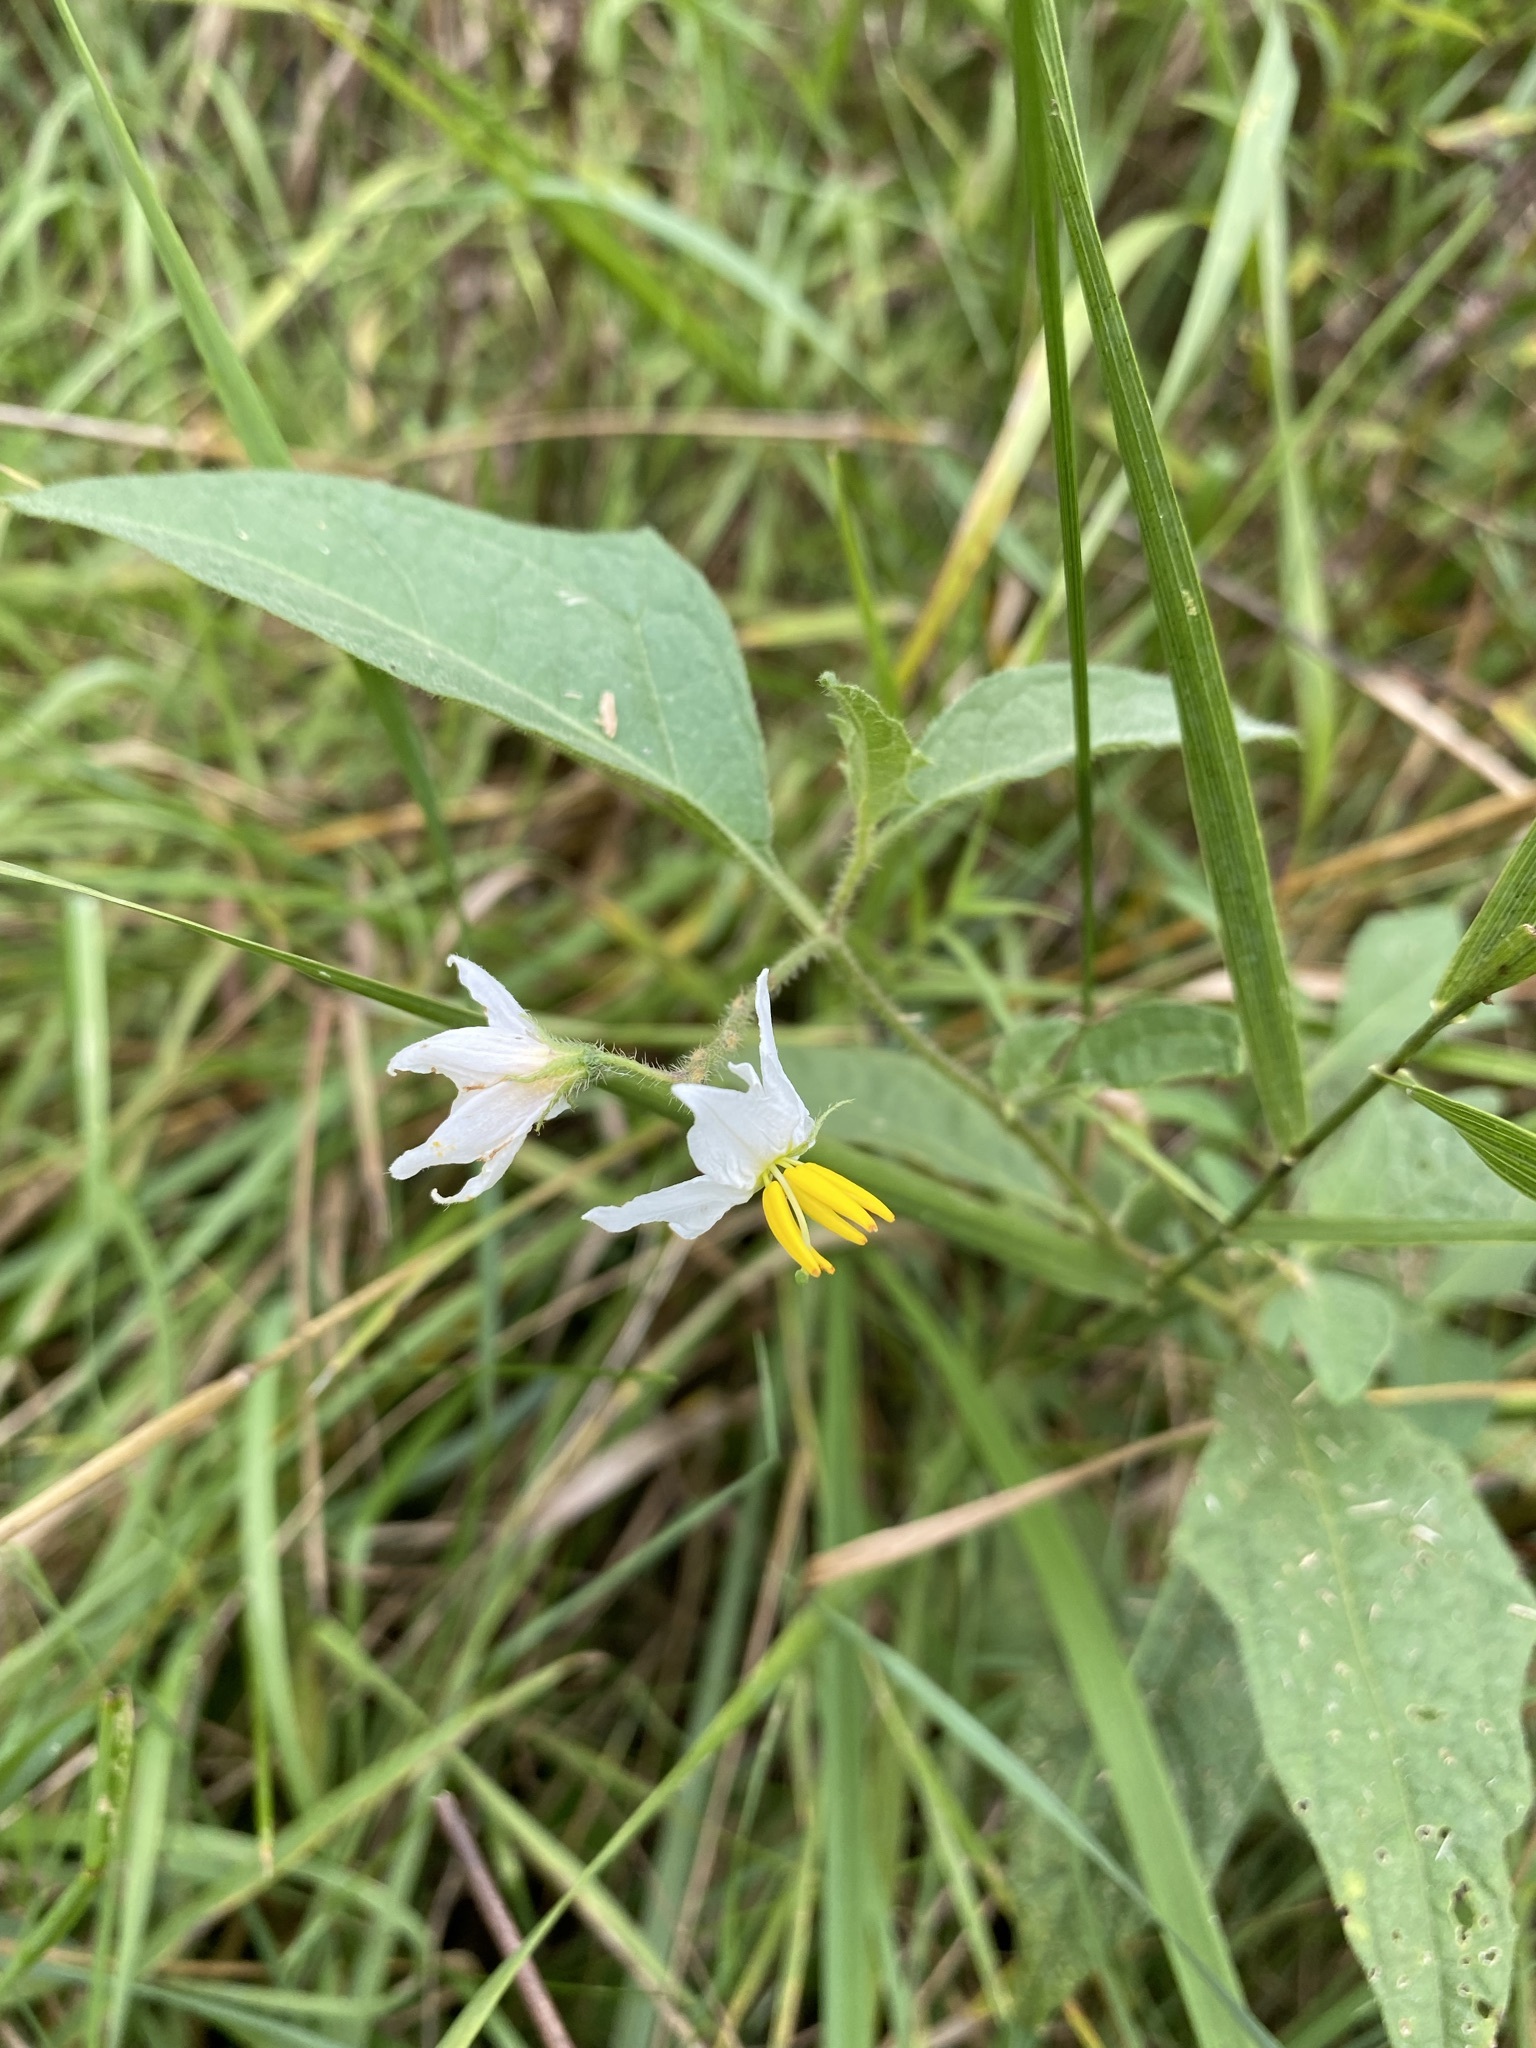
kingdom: Plantae
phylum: Tracheophyta
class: Magnoliopsida
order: Solanales
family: Solanaceae
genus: Solanum
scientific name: Solanum carolinense
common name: Horse-nettle
